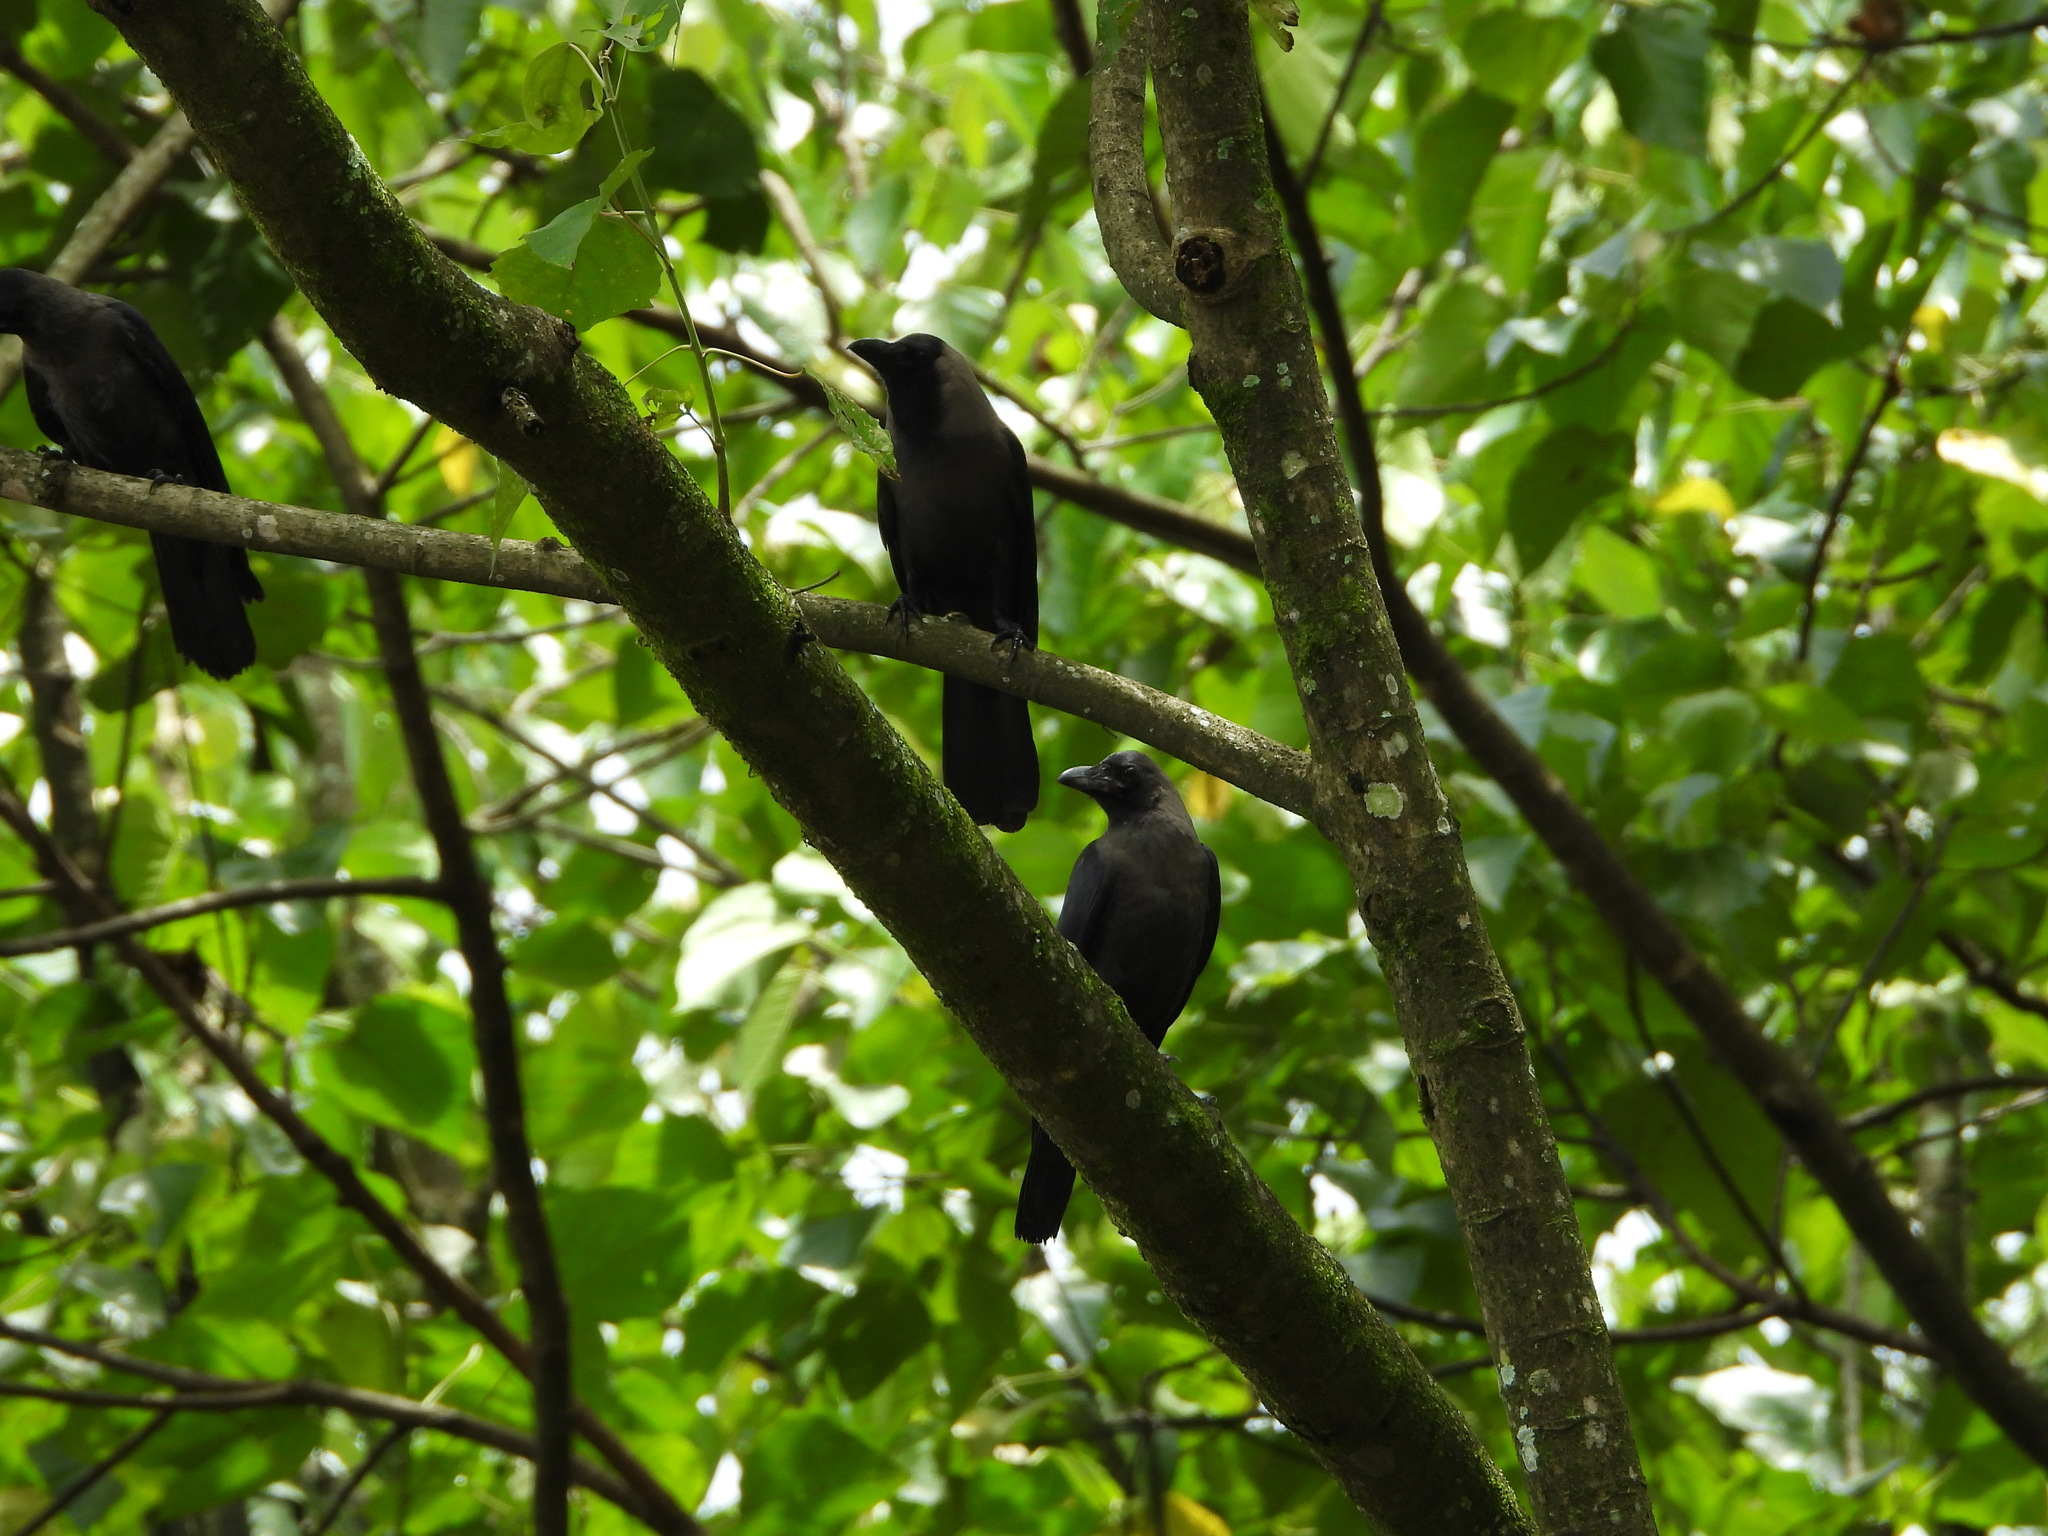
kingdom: Animalia
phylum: Chordata
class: Aves
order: Passeriformes
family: Corvidae
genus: Corvus
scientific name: Corvus splendens
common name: House crow
